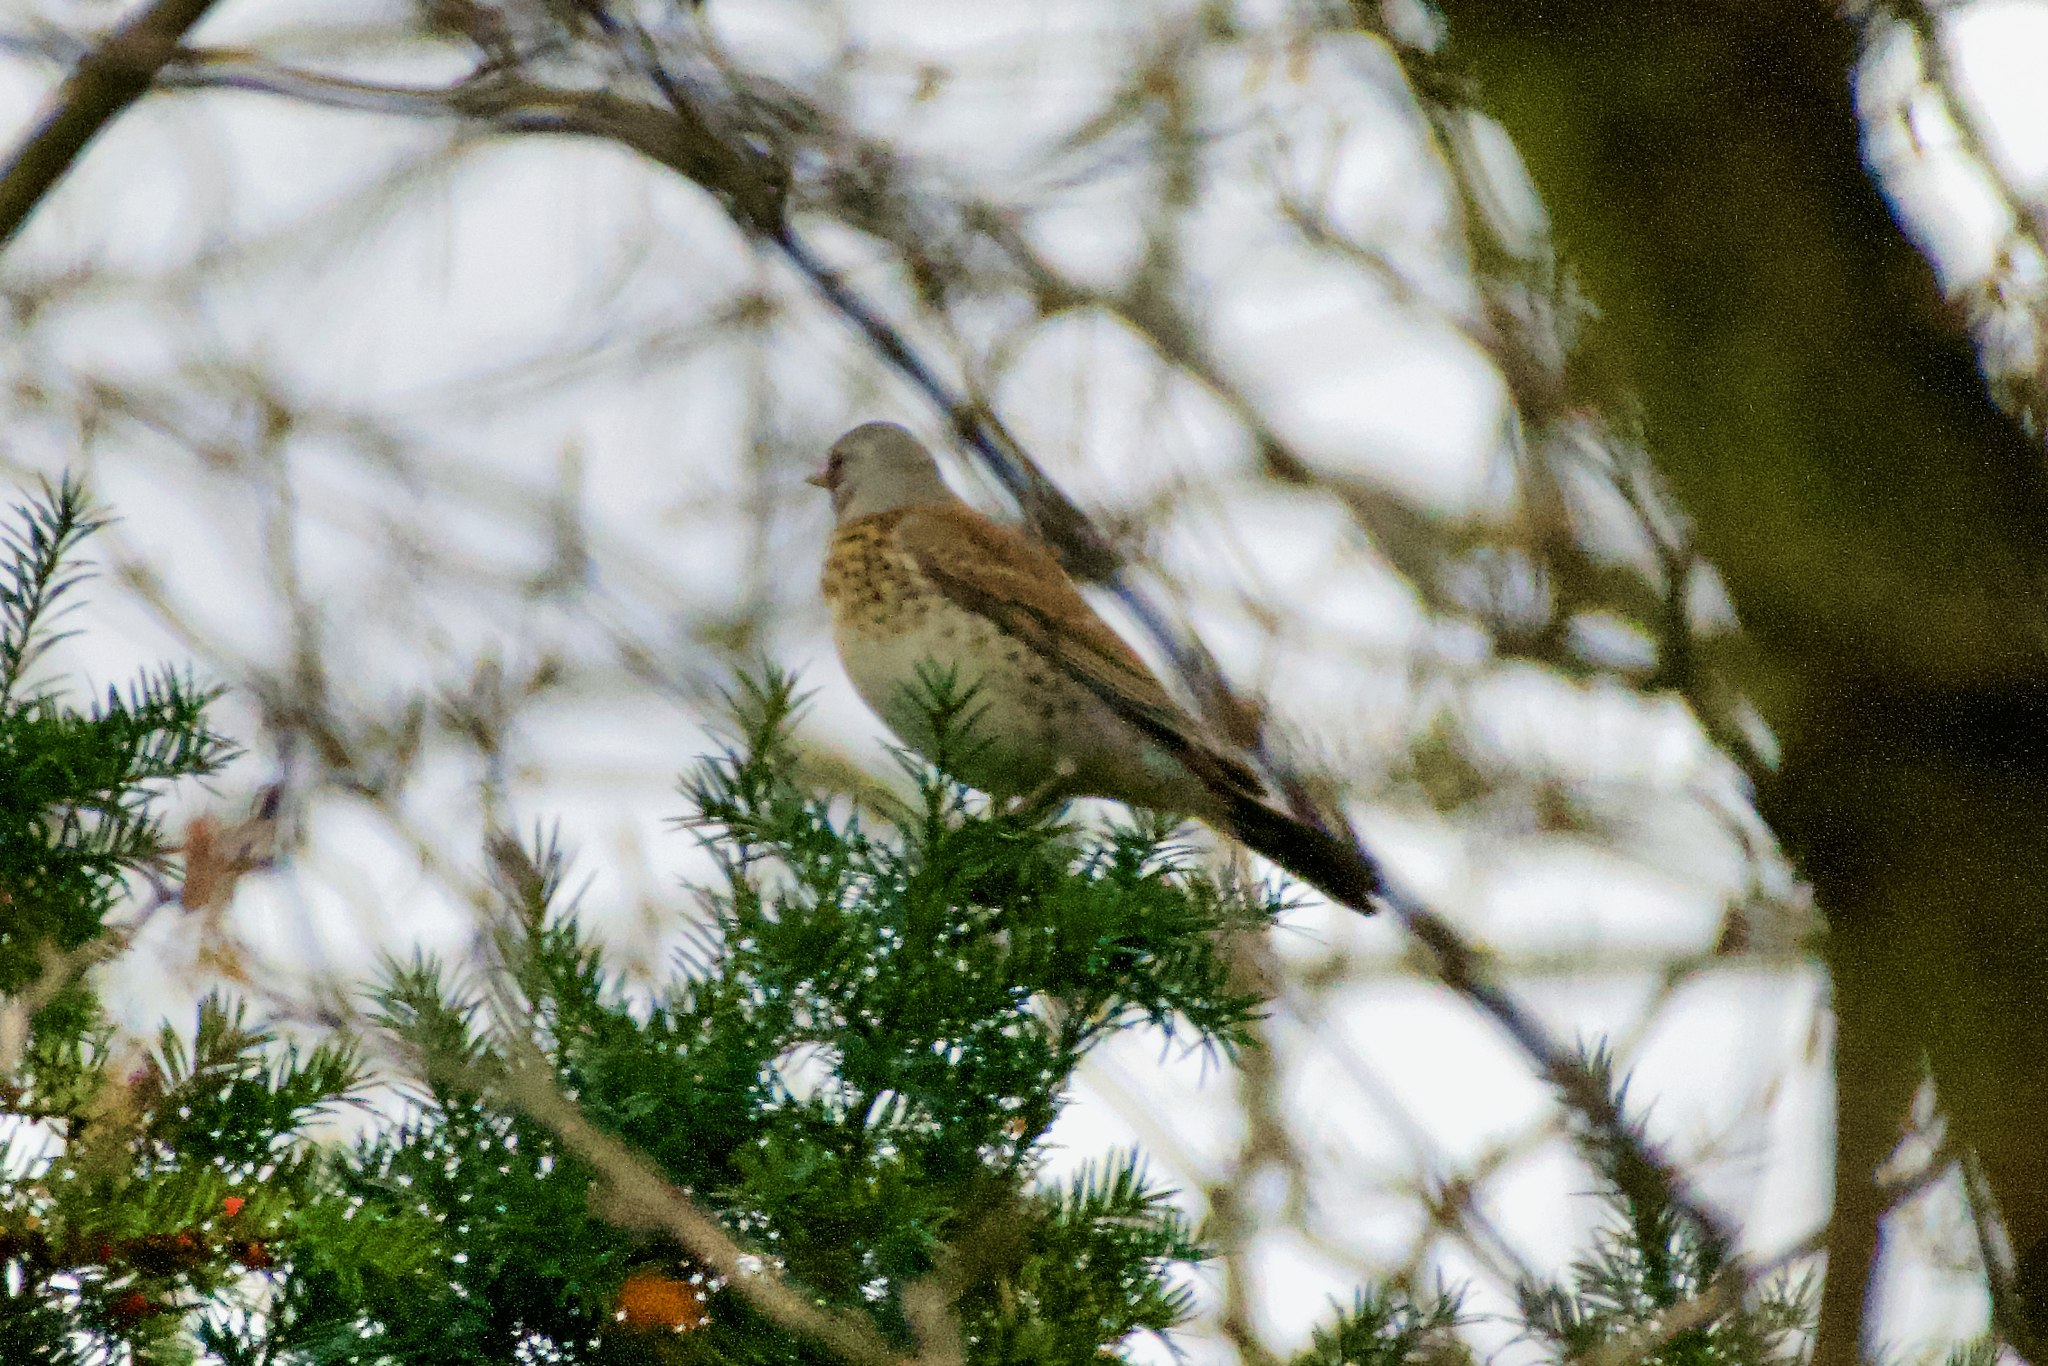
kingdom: Animalia
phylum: Chordata
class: Aves
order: Passeriformes
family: Turdidae
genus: Turdus
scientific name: Turdus pilaris
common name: Fieldfare
